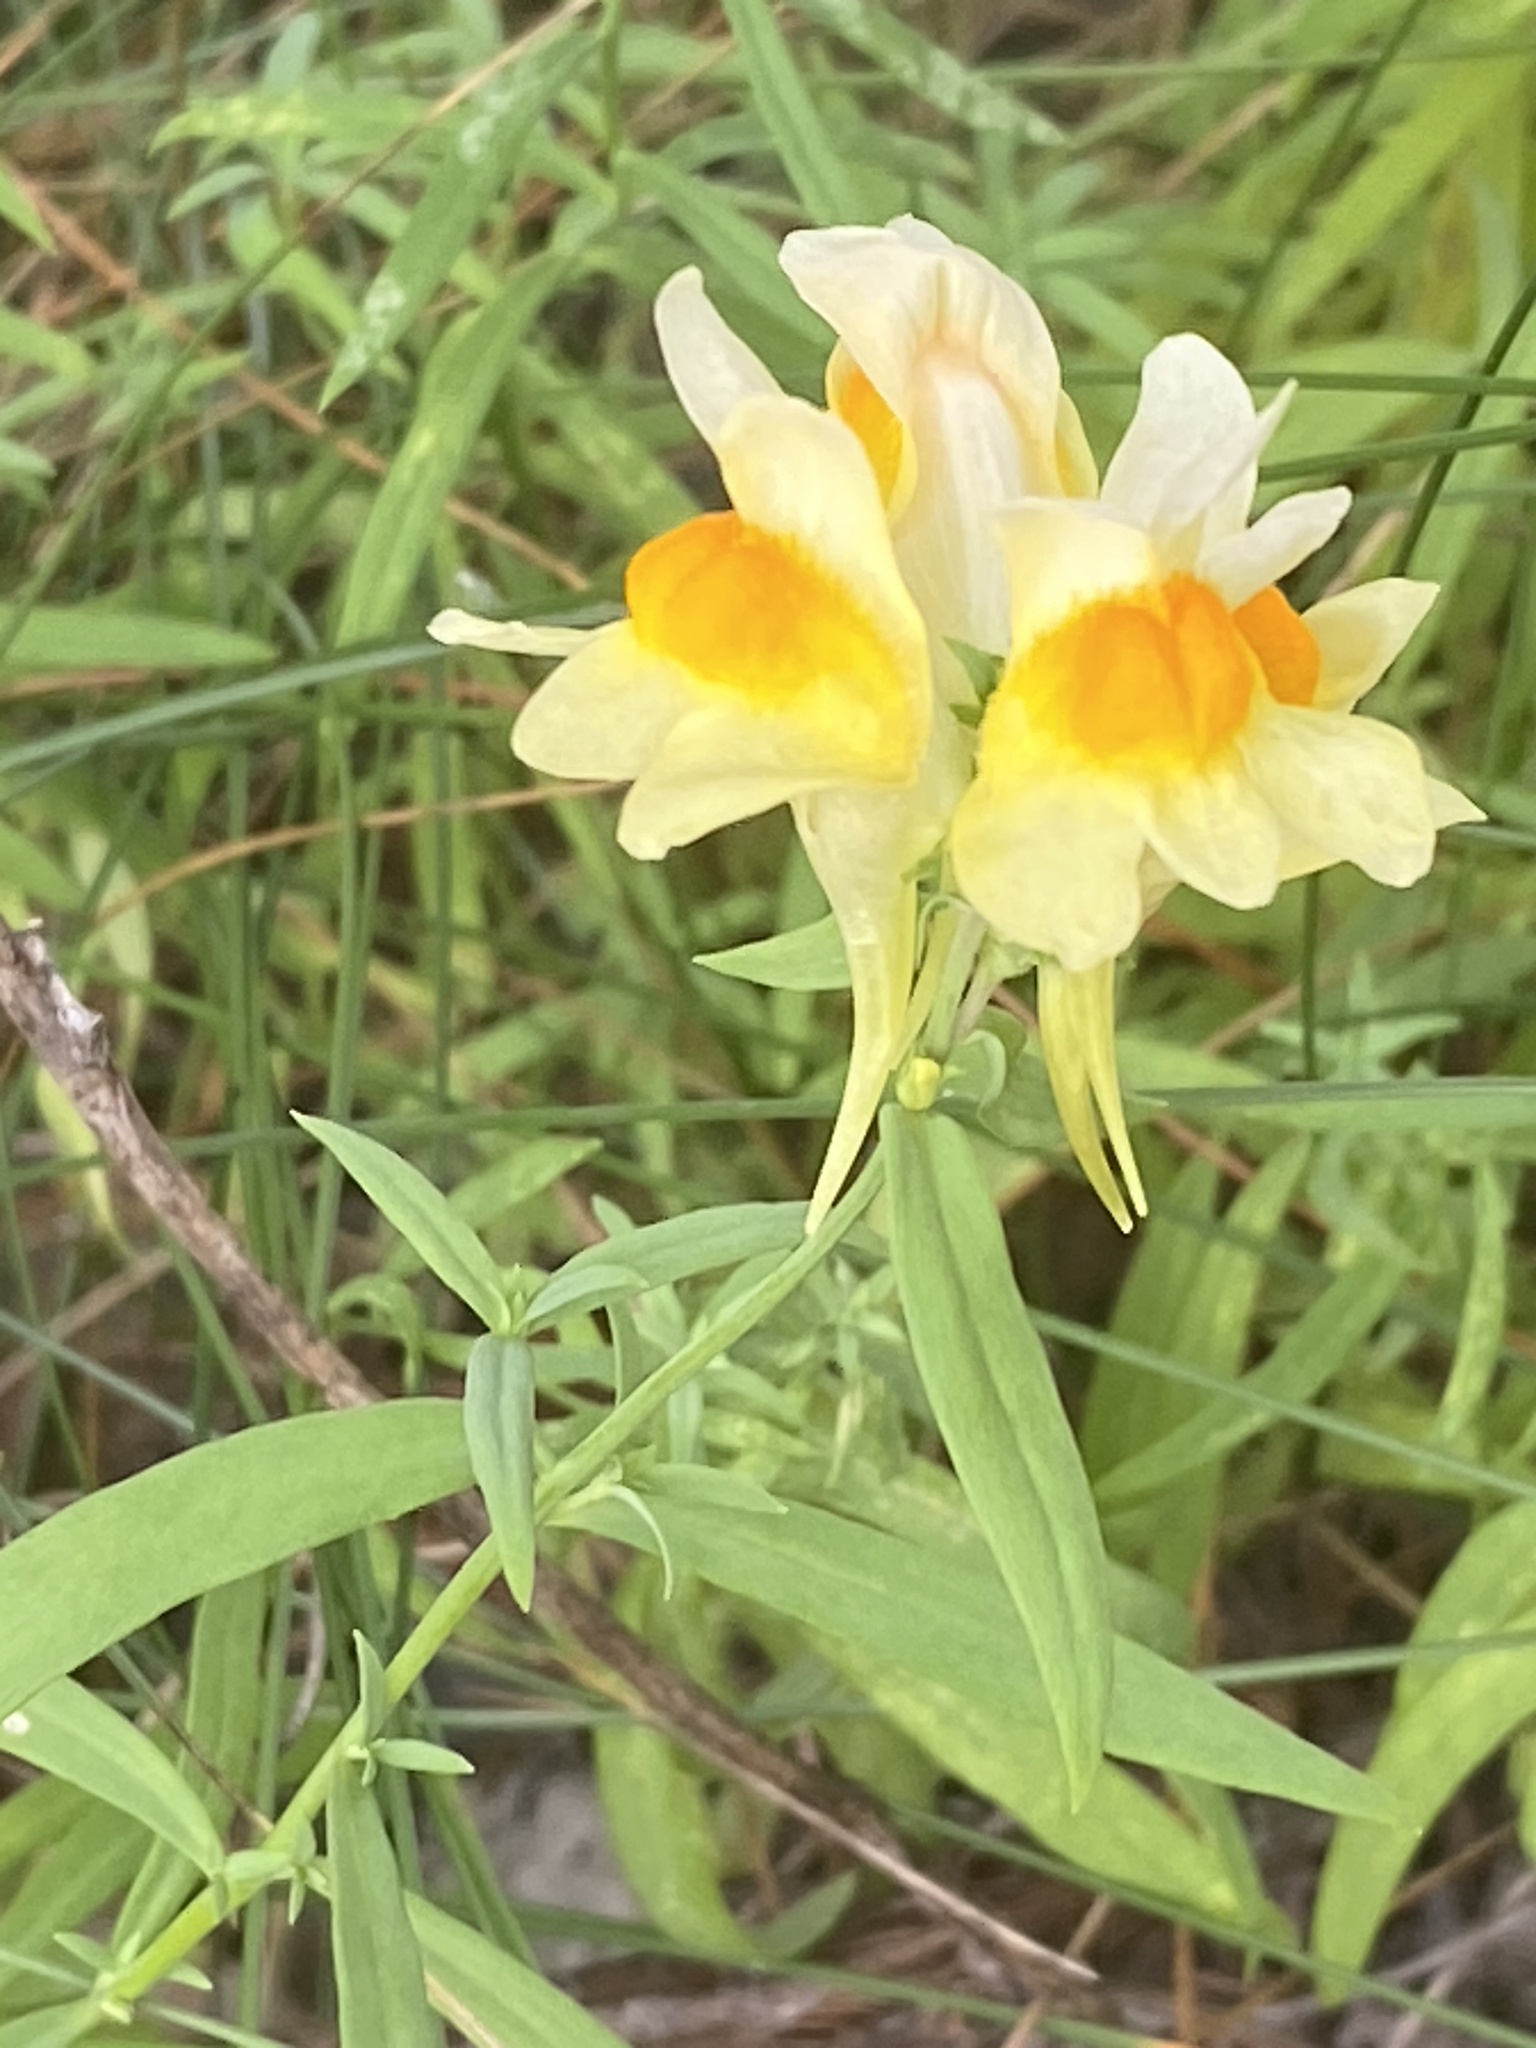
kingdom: Plantae
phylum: Tracheophyta
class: Magnoliopsida
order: Lamiales
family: Plantaginaceae
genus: Linaria
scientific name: Linaria vulgaris
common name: Butter and eggs
